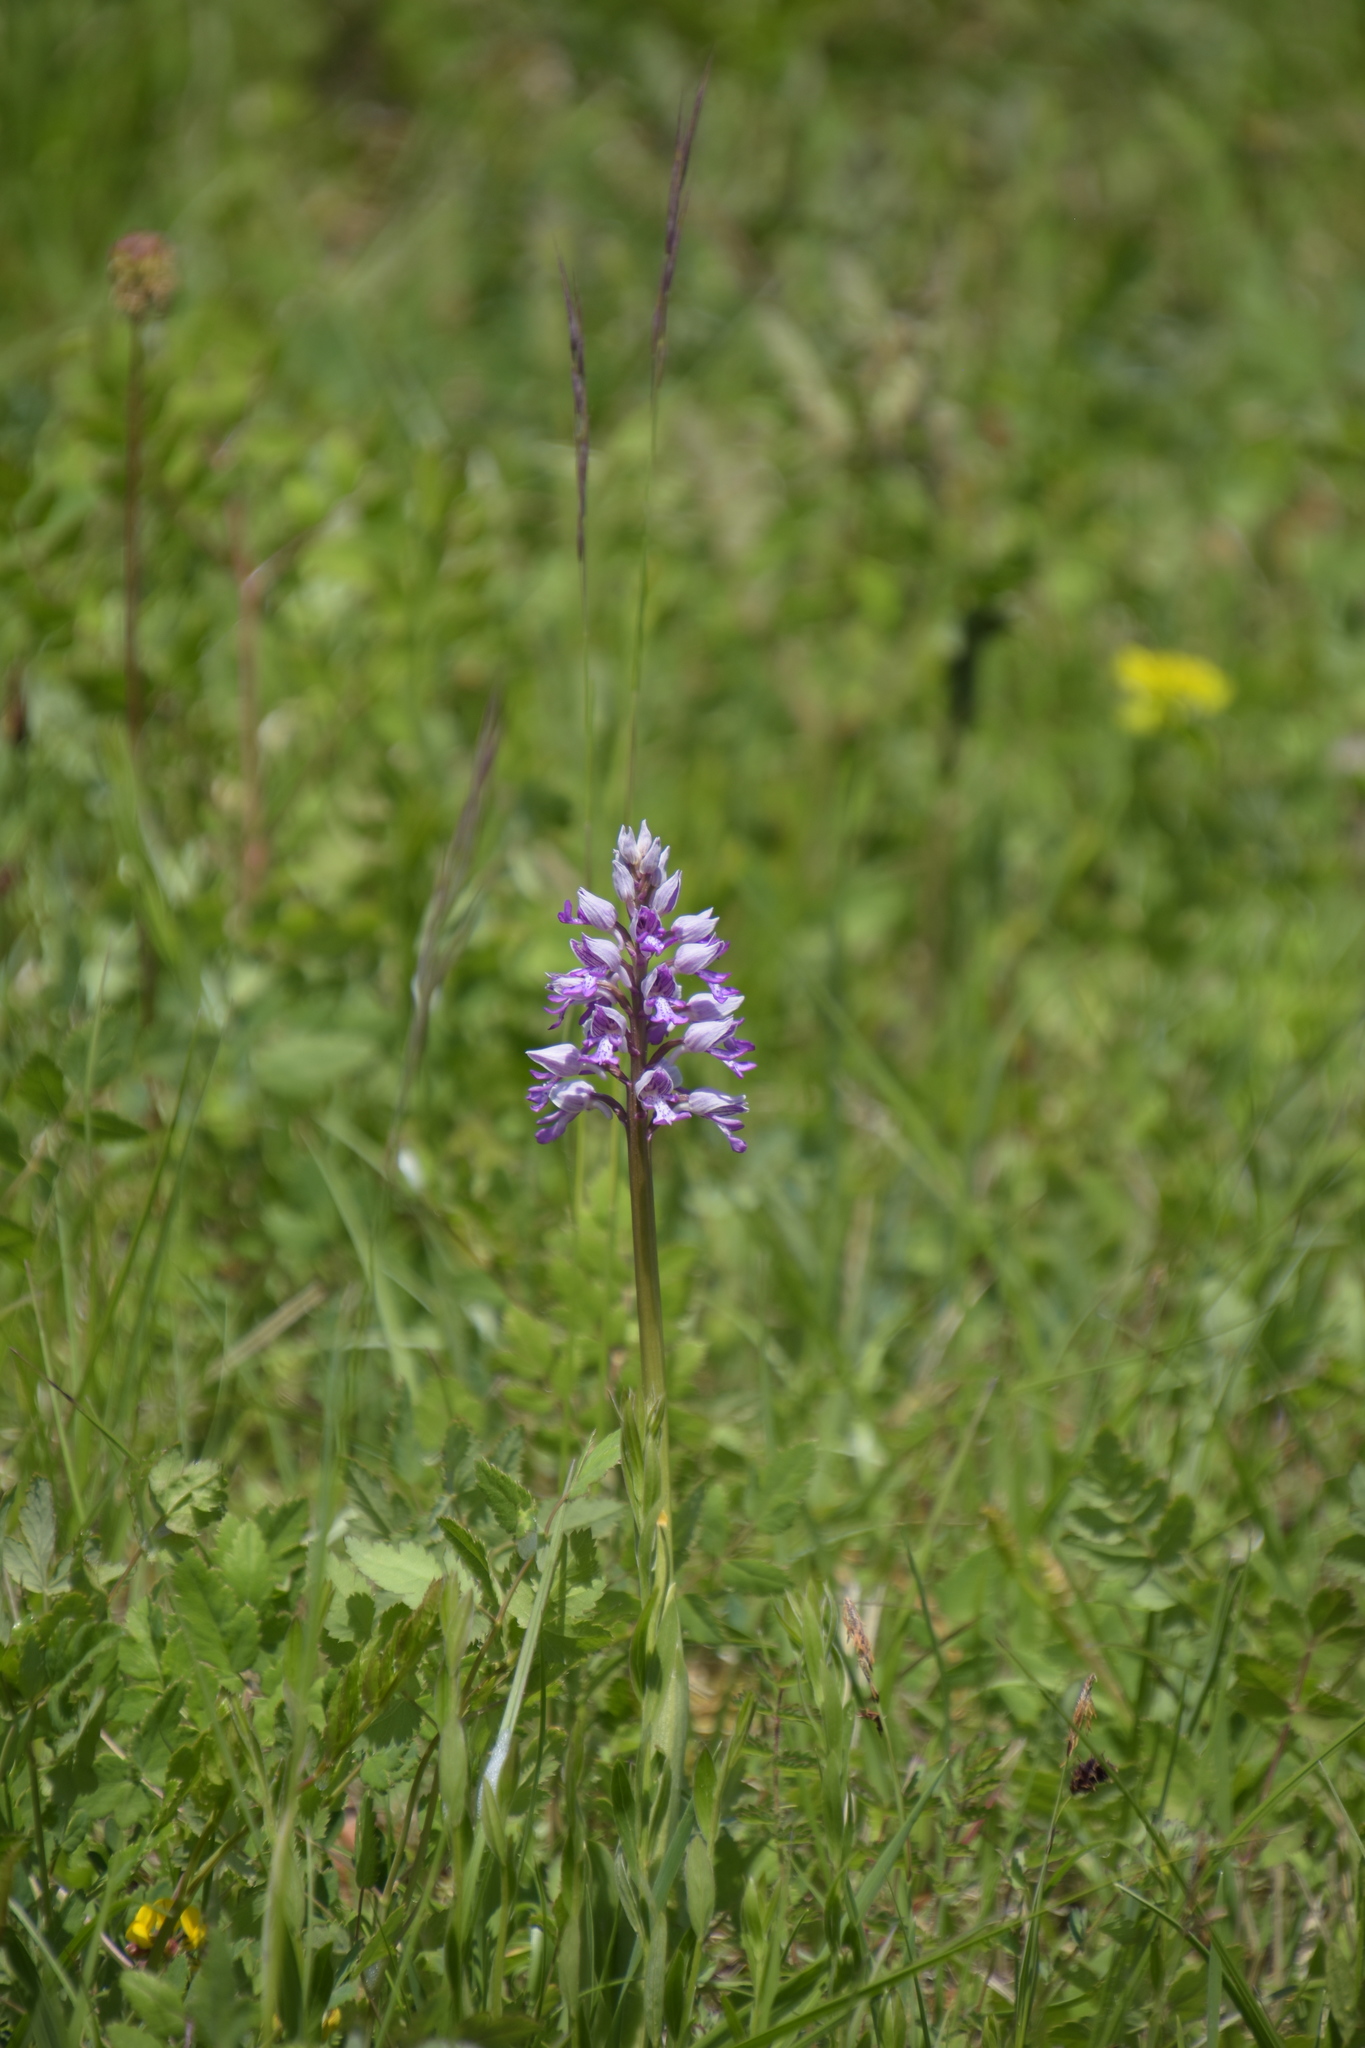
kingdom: Plantae
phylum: Tracheophyta
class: Liliopsida
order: Asparagales
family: Orchidaceae
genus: Orchis
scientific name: Orchis militaris
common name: Military orchid
